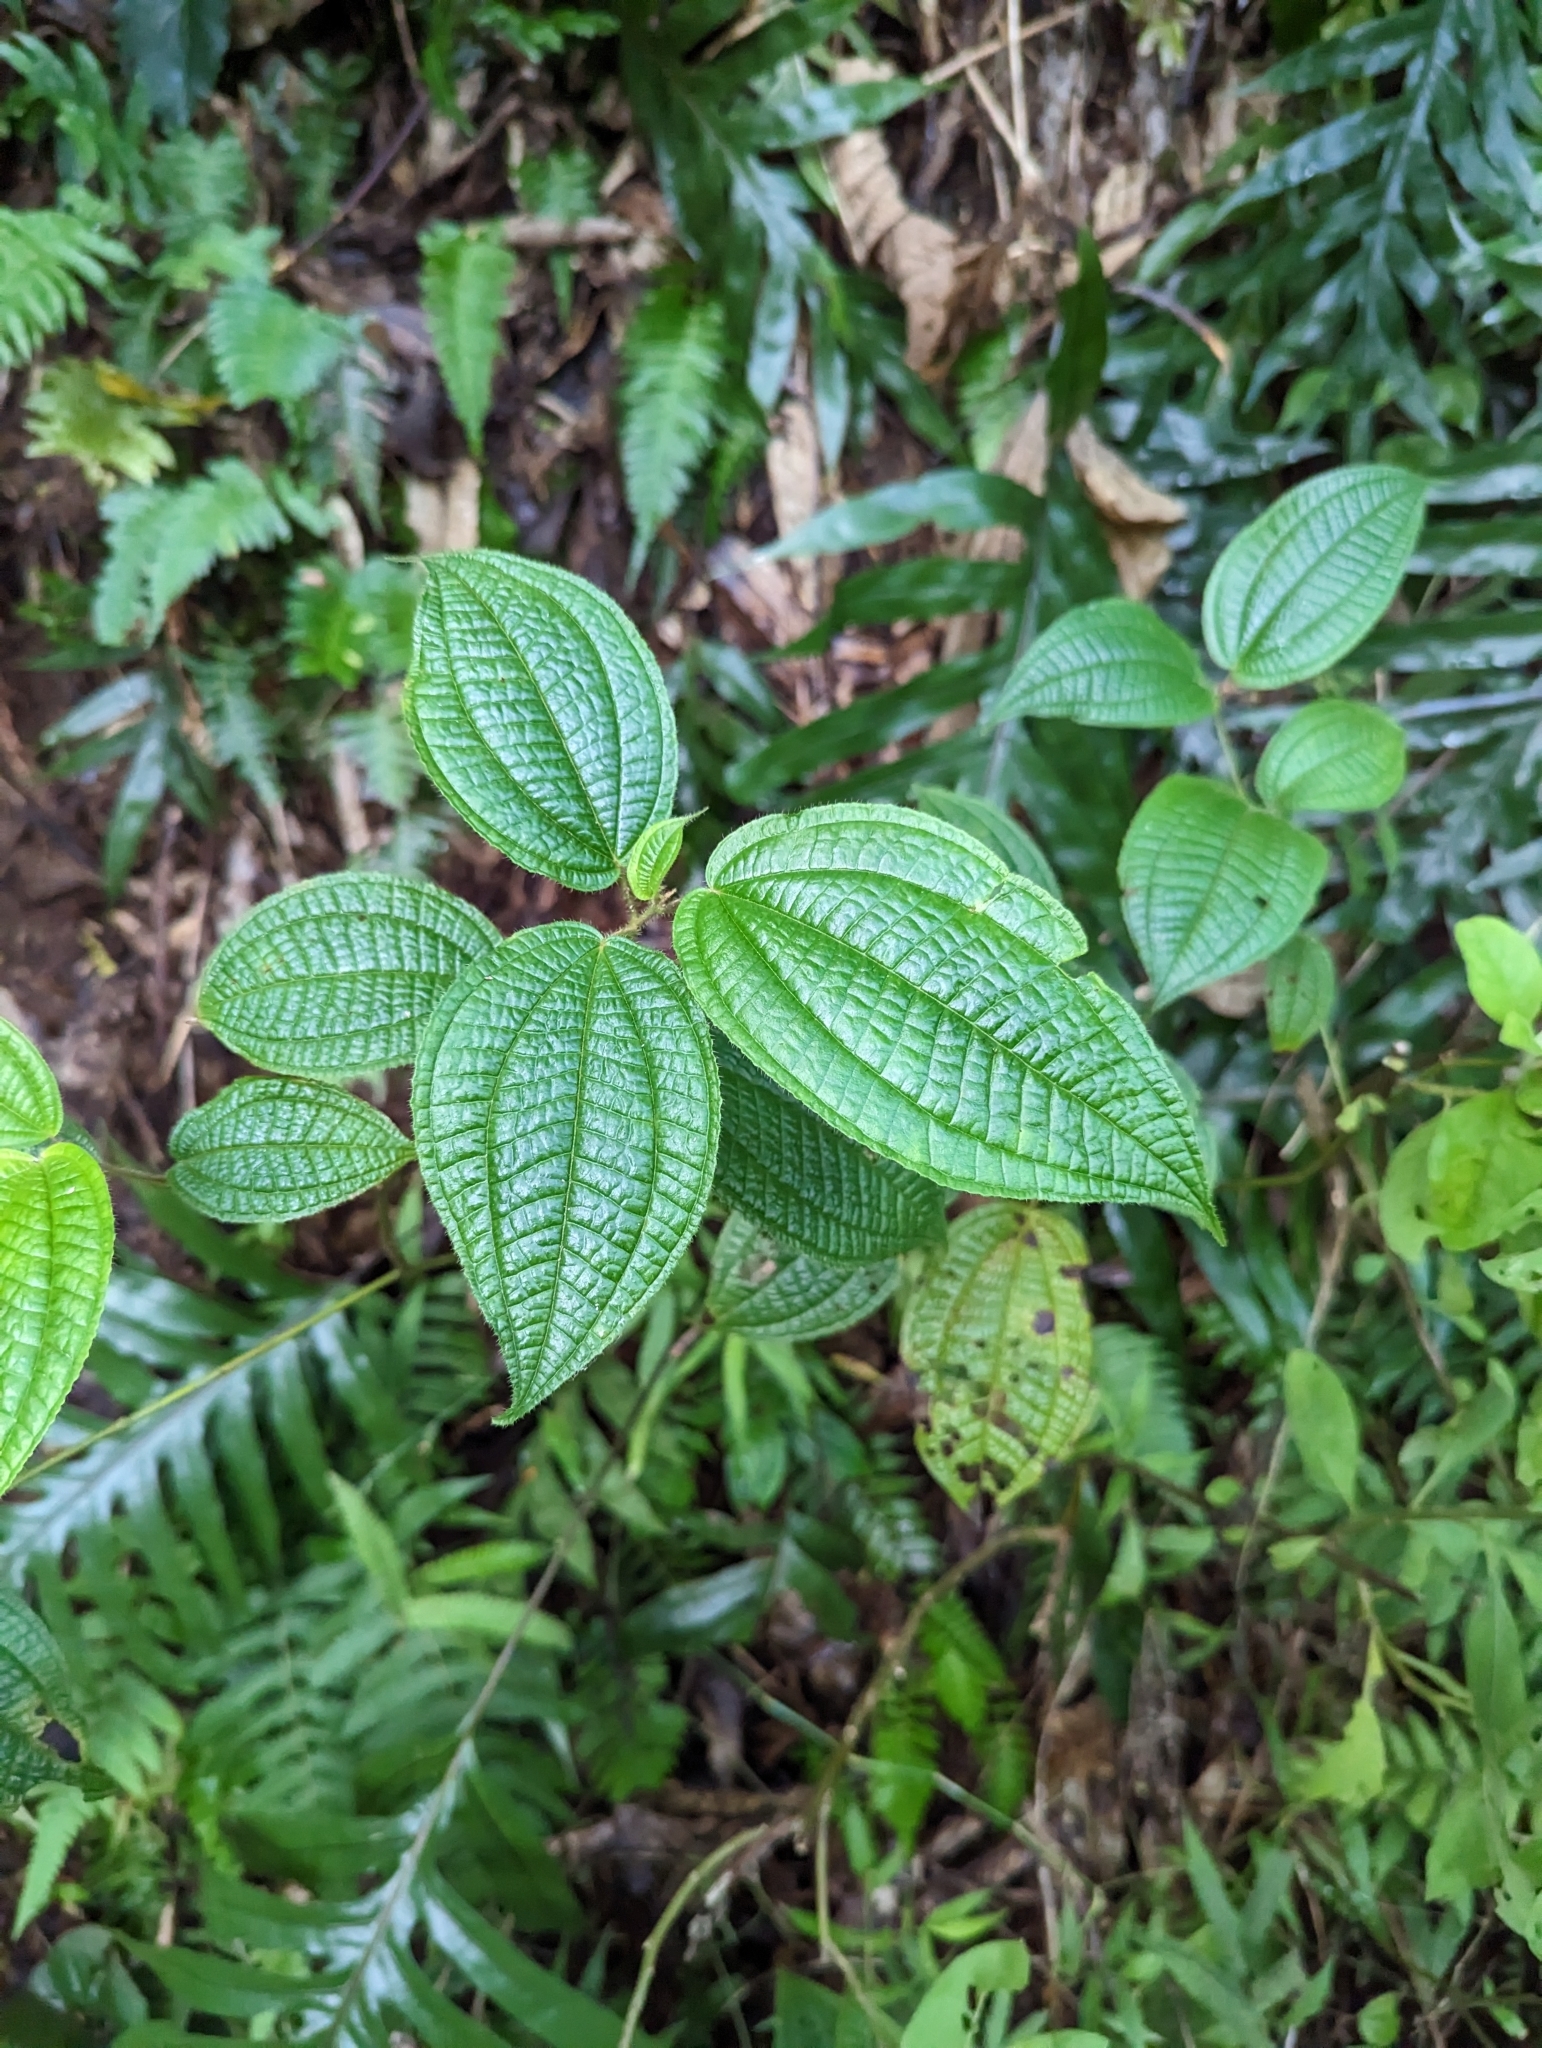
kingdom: Plantae
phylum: Tracheophyta
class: Magnoliopsida
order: Myrtales
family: Melastomataceae
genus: Miconia
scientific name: Miconia crenata
